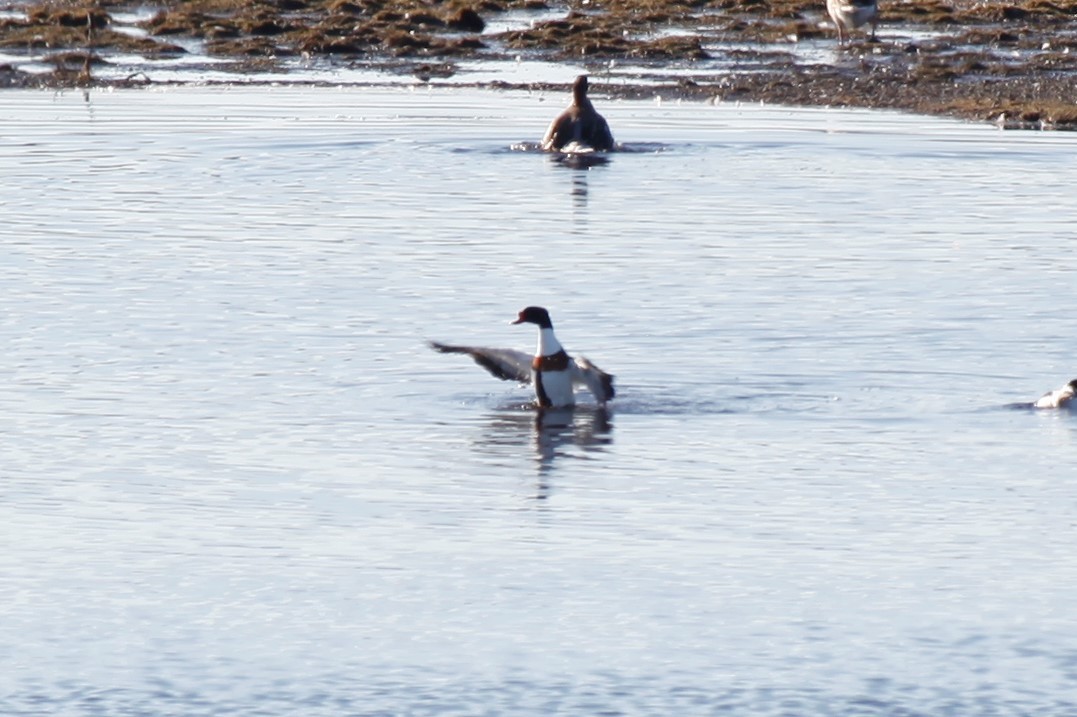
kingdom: Animalia
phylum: Chordata
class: Aves
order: Anseriformes
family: Anatidae
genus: Tadorna
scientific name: Tadorna tadorna
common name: Common shelduck
